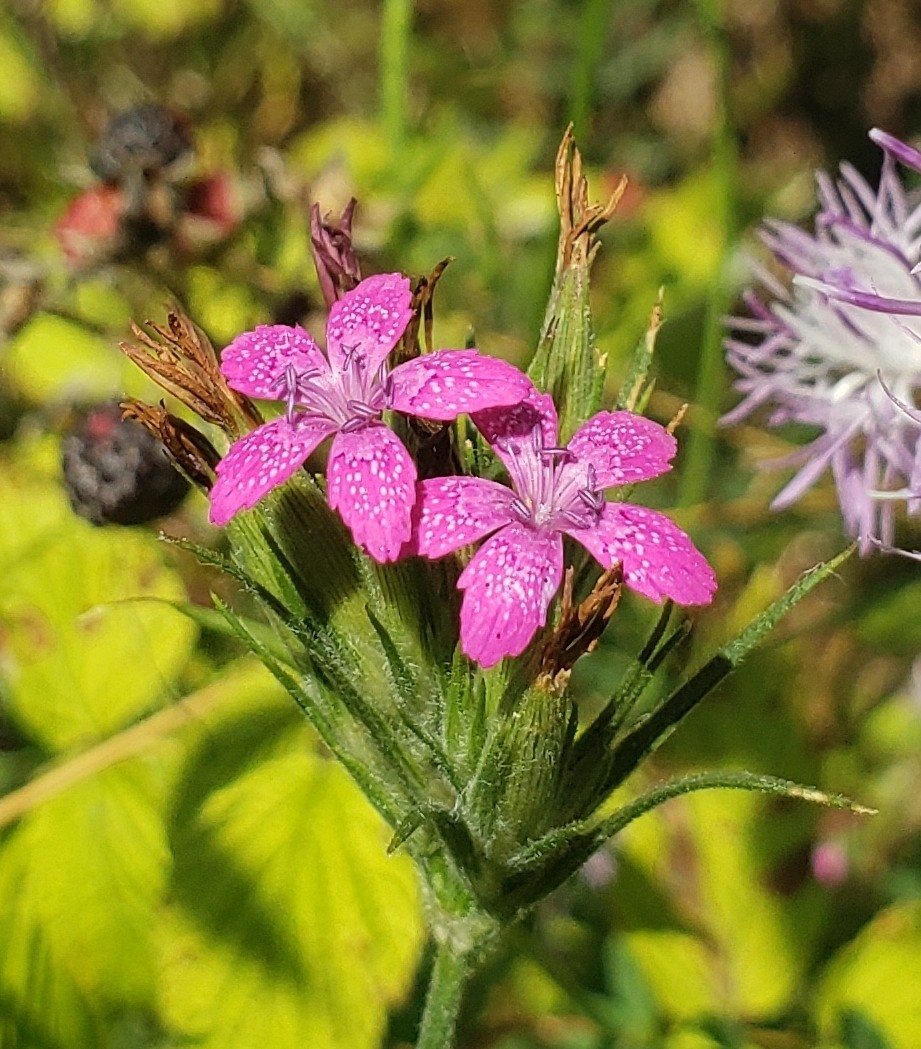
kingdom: Plantae
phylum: Tracheophyta
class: Magnoliopsida
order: Caryophyllales
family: Caryophyllaceae
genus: Dianthus
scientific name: Dianthus armeria
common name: Deptford pink
